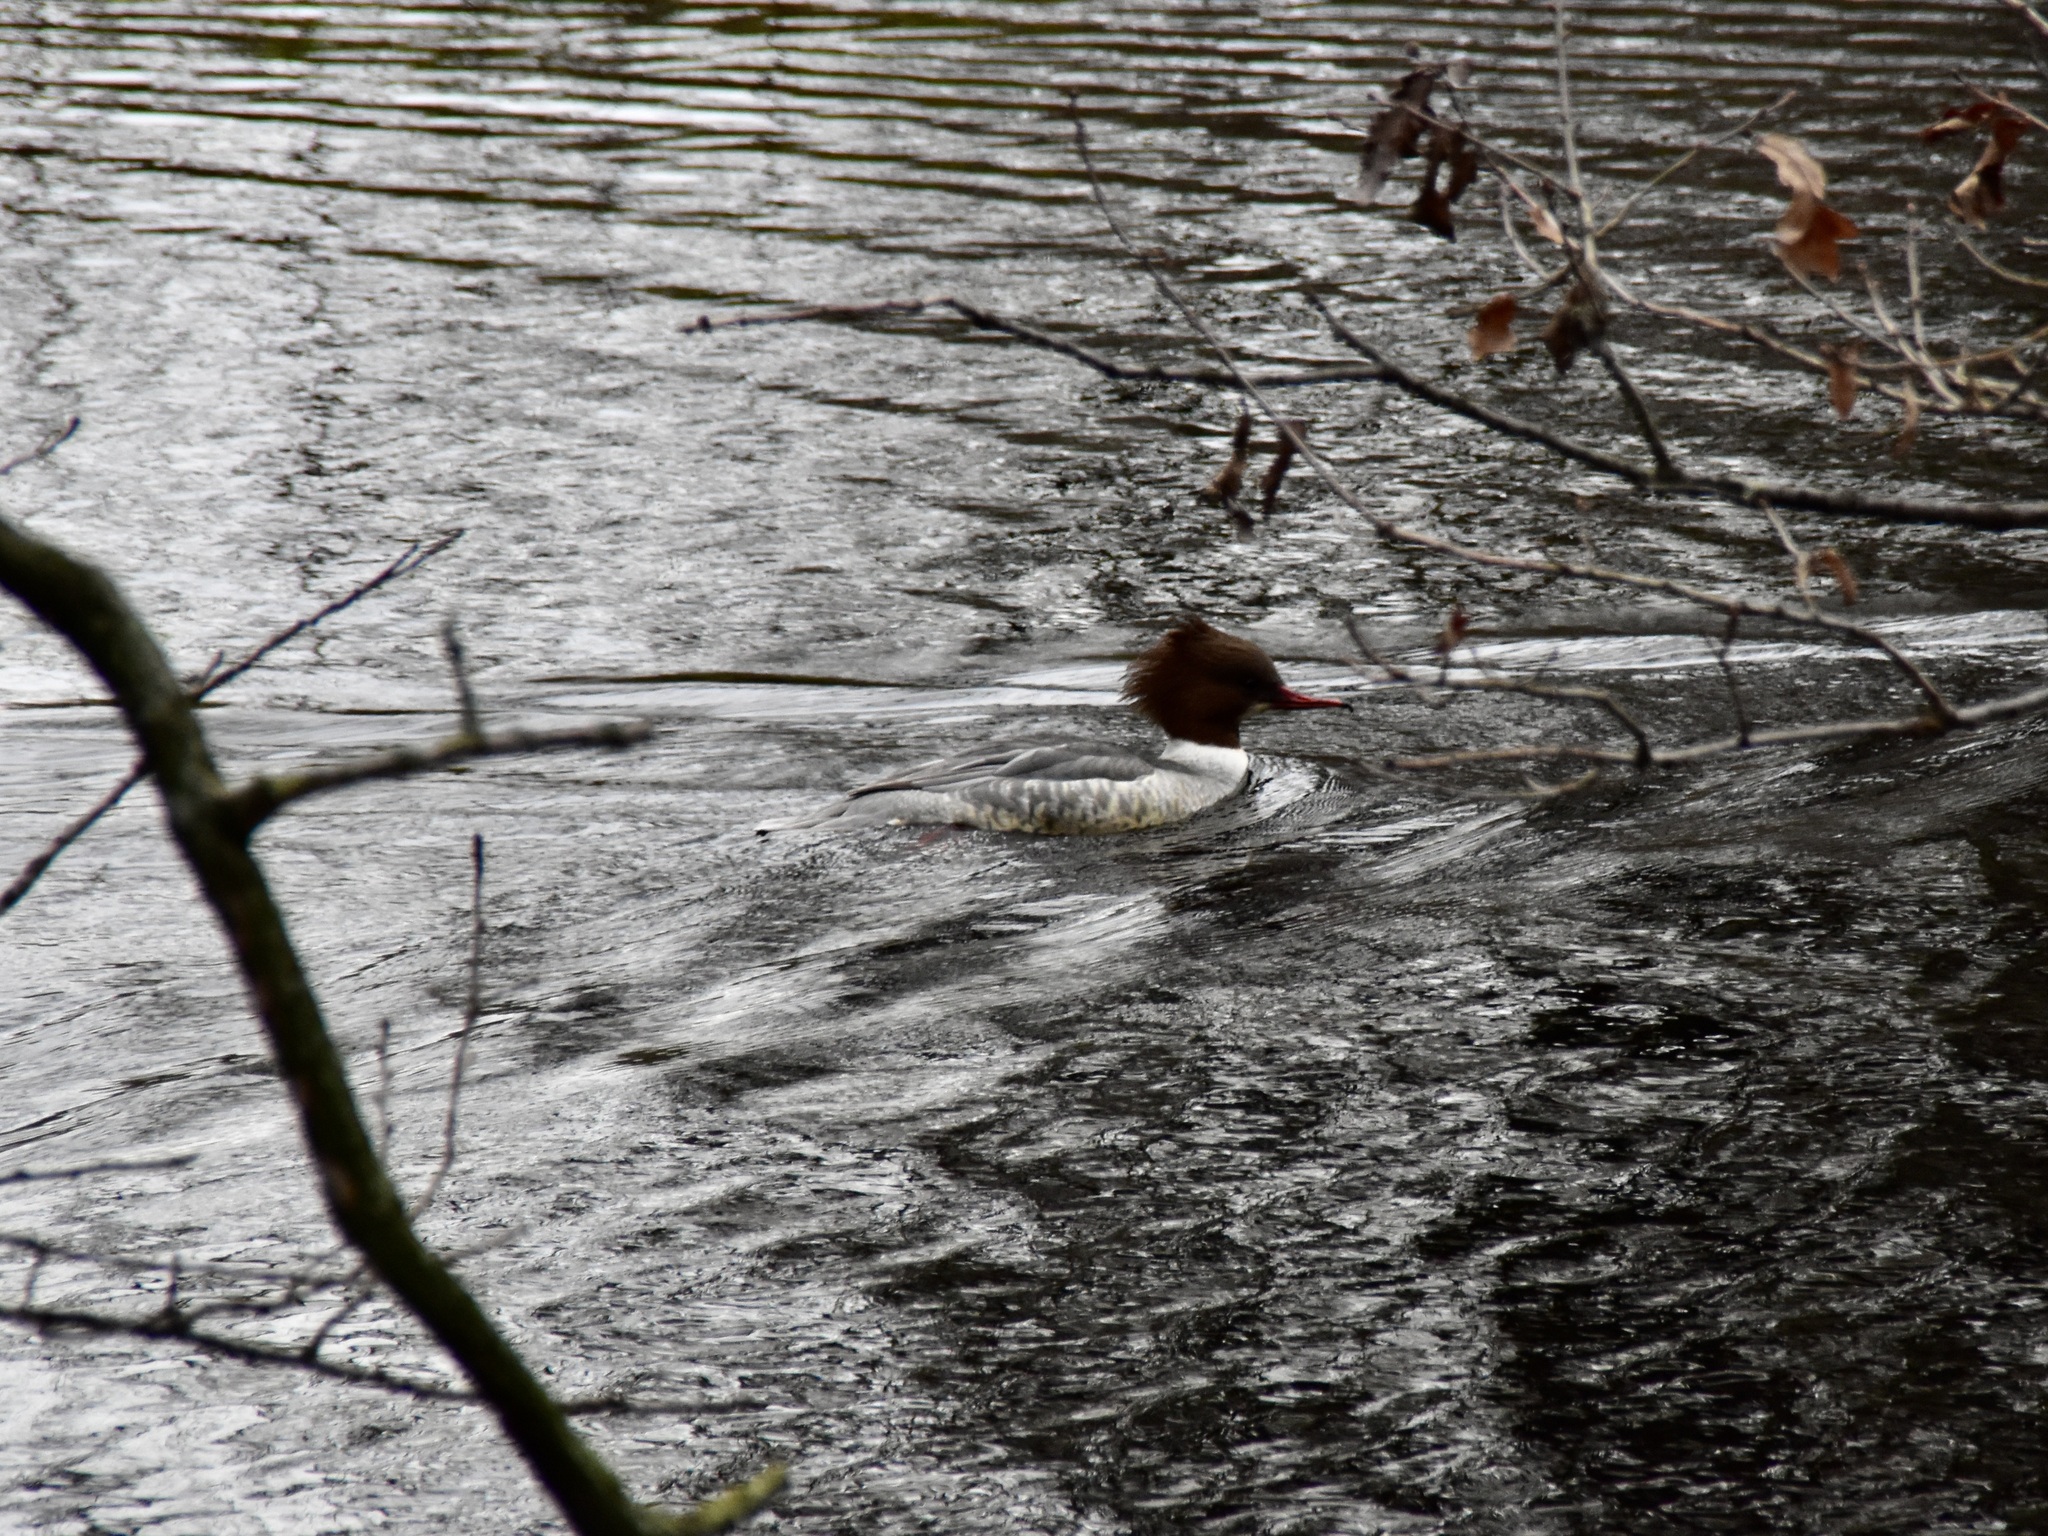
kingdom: Animalia
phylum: Chordata
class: Aves
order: Anseriformes
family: Anatidae
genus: Mergus
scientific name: Mergus merganser
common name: Common merganser
